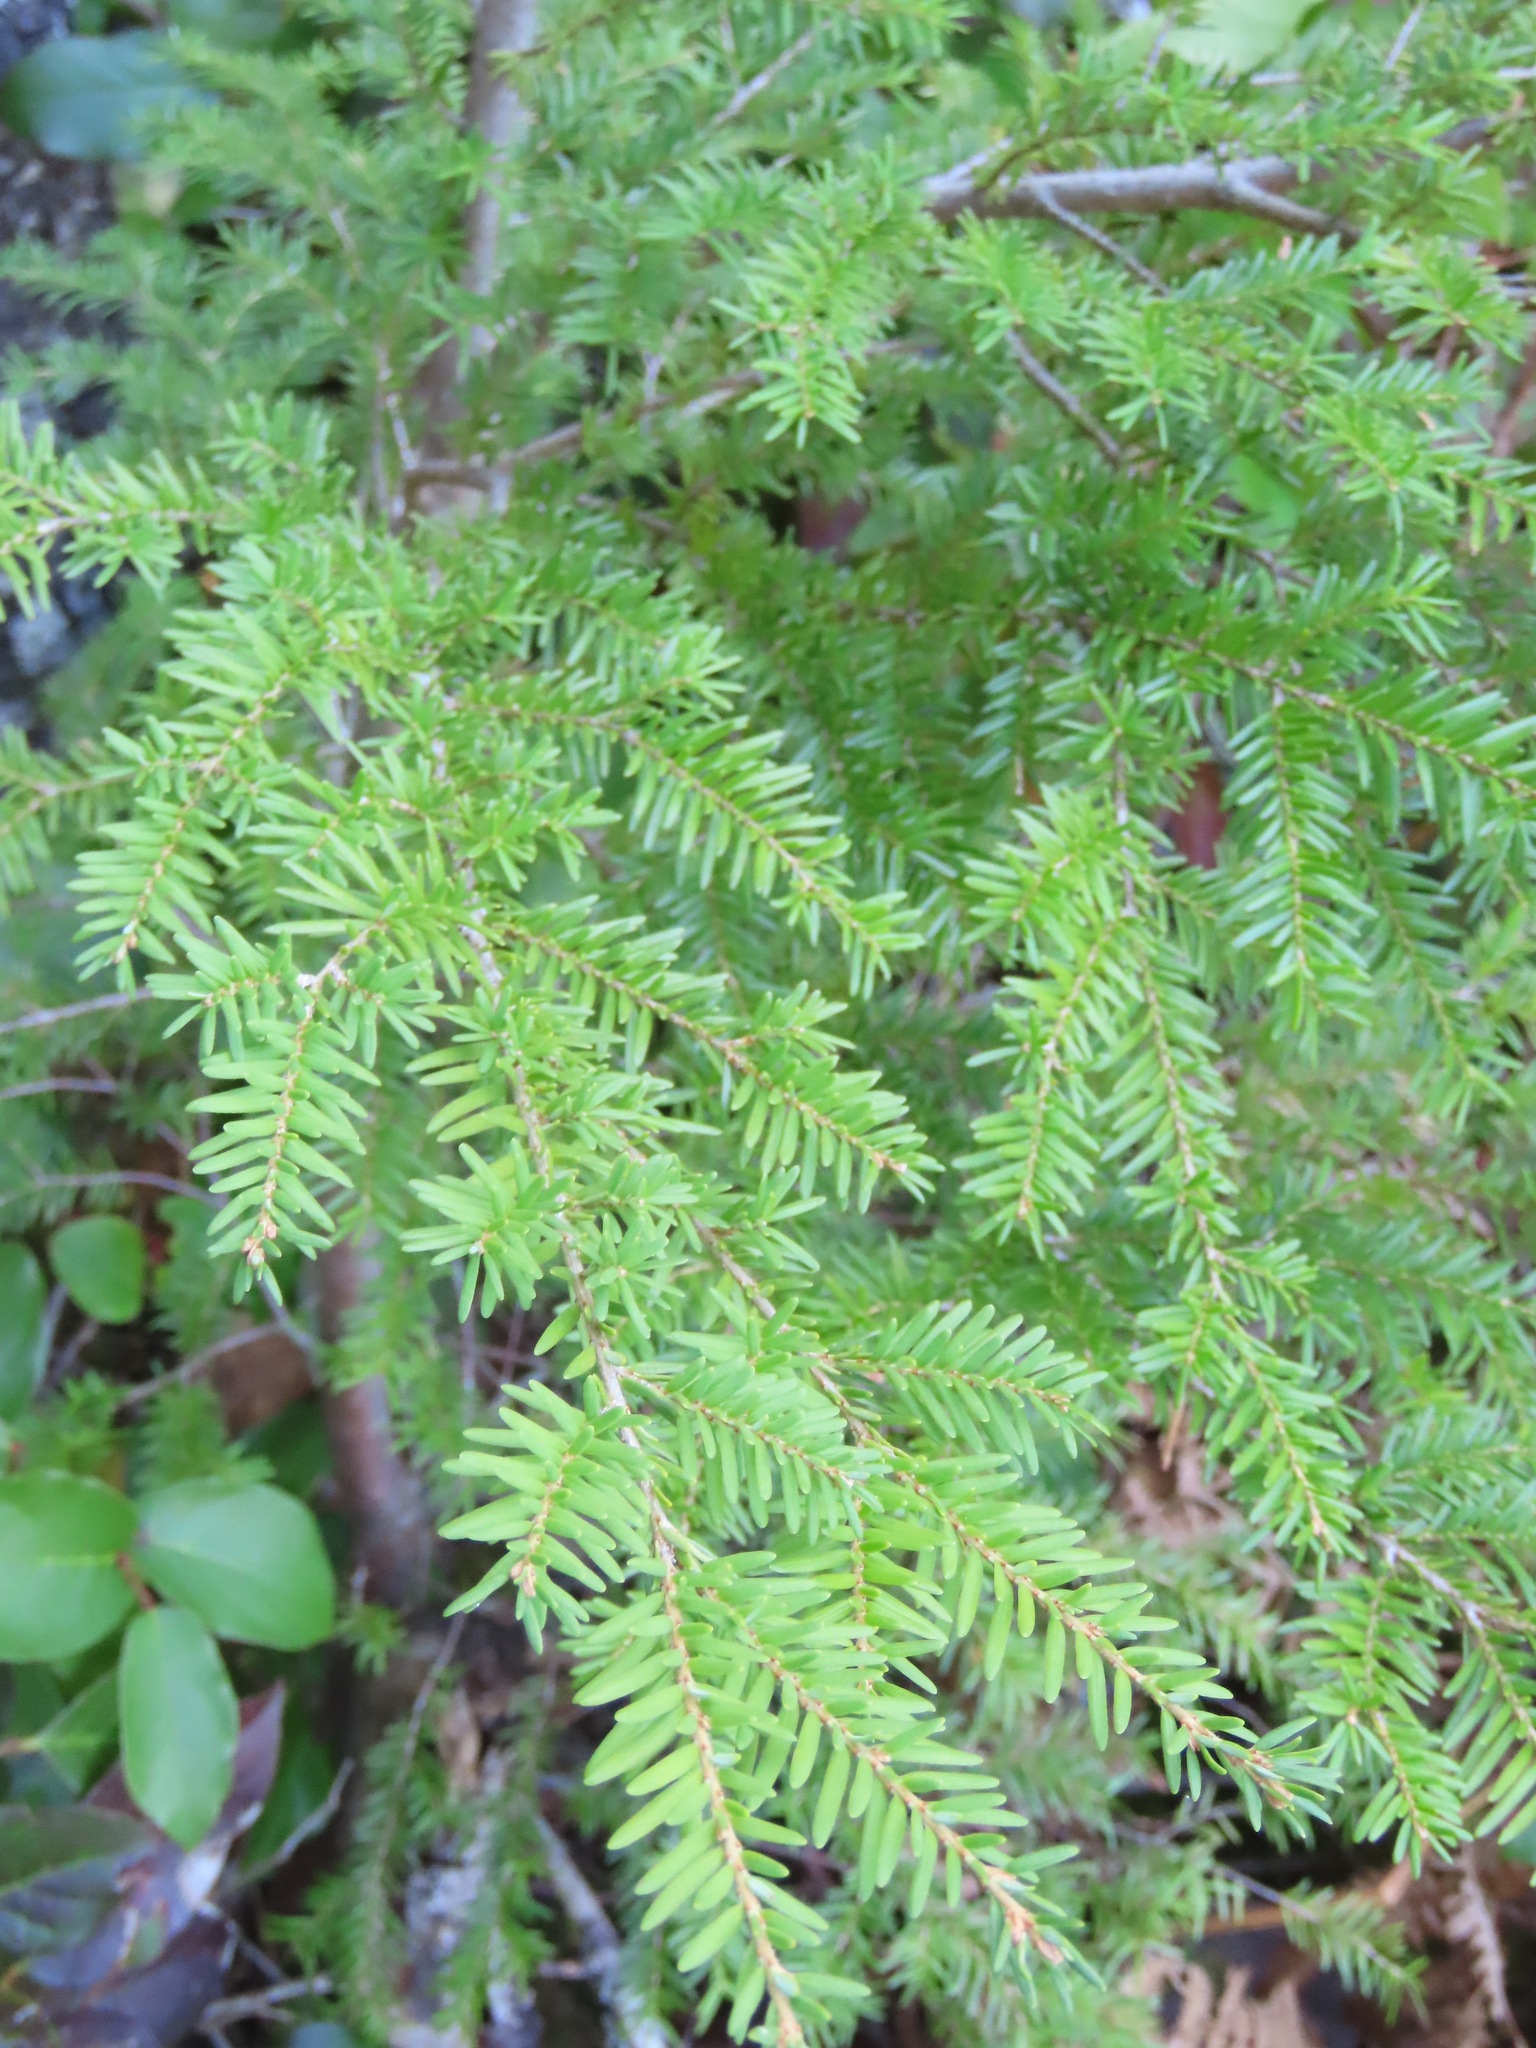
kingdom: Plantae
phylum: Tracheophyta
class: Pinopsida
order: Pinales
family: Pinaceae
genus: Tsuga
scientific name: Tsuga heterophylla
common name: Western hemlock
